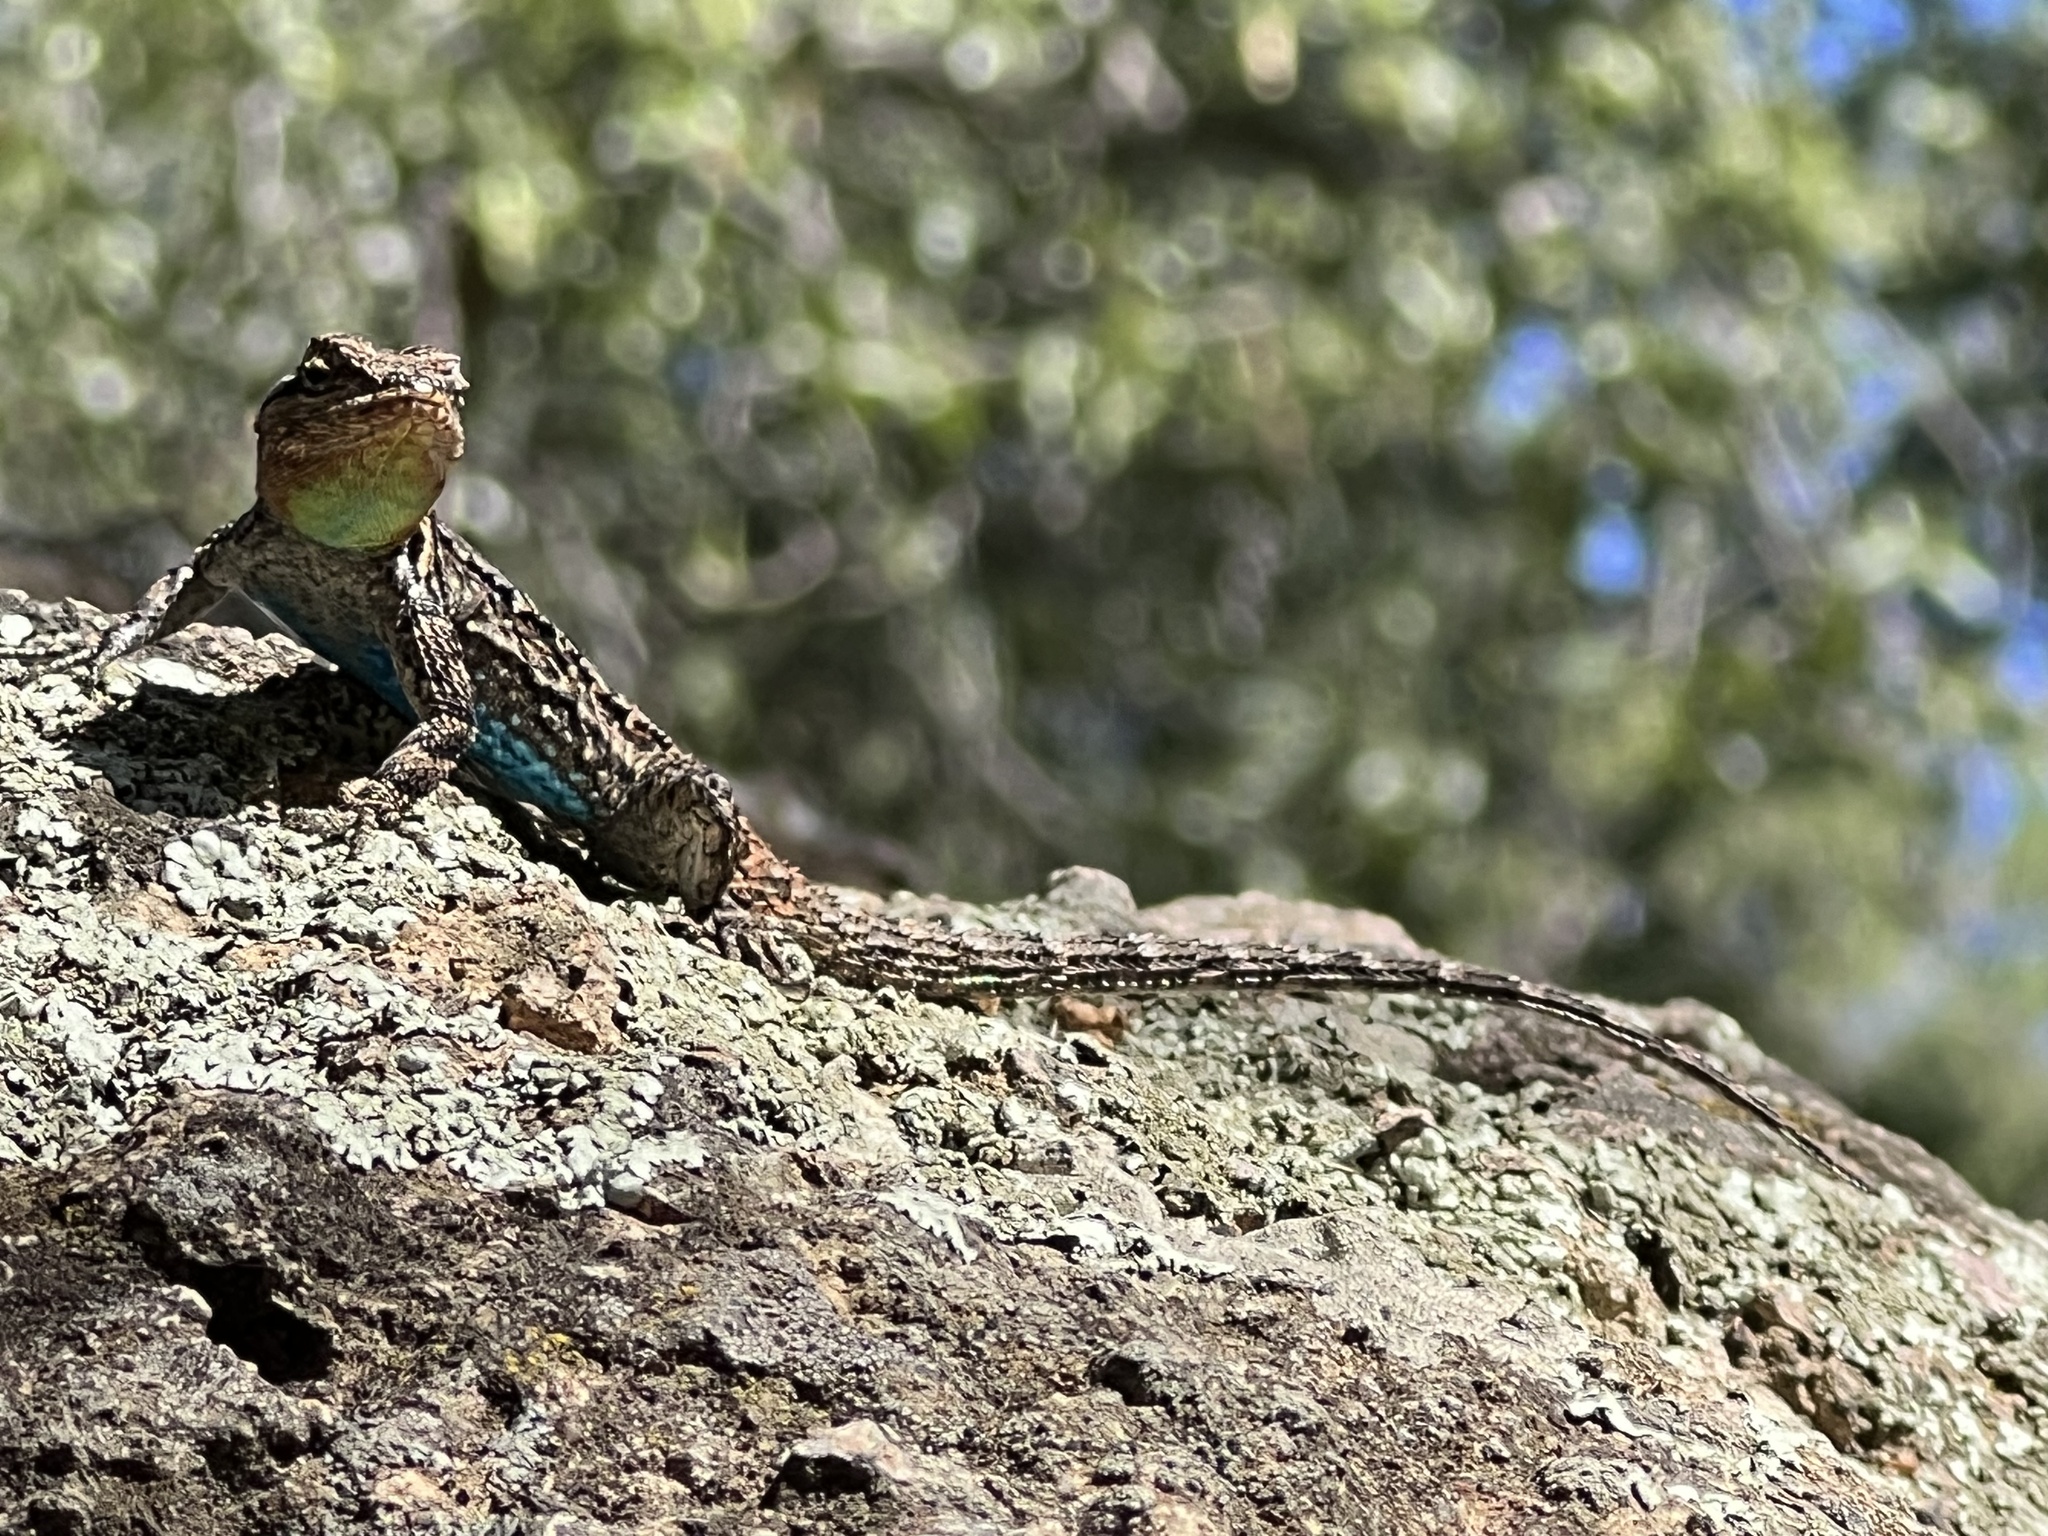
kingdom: Animalia
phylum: Chordata
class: Squamata
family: Phrynosomatidae
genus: Urosaurus
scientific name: Urosaurus ornatus
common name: Ornate tree lizard
